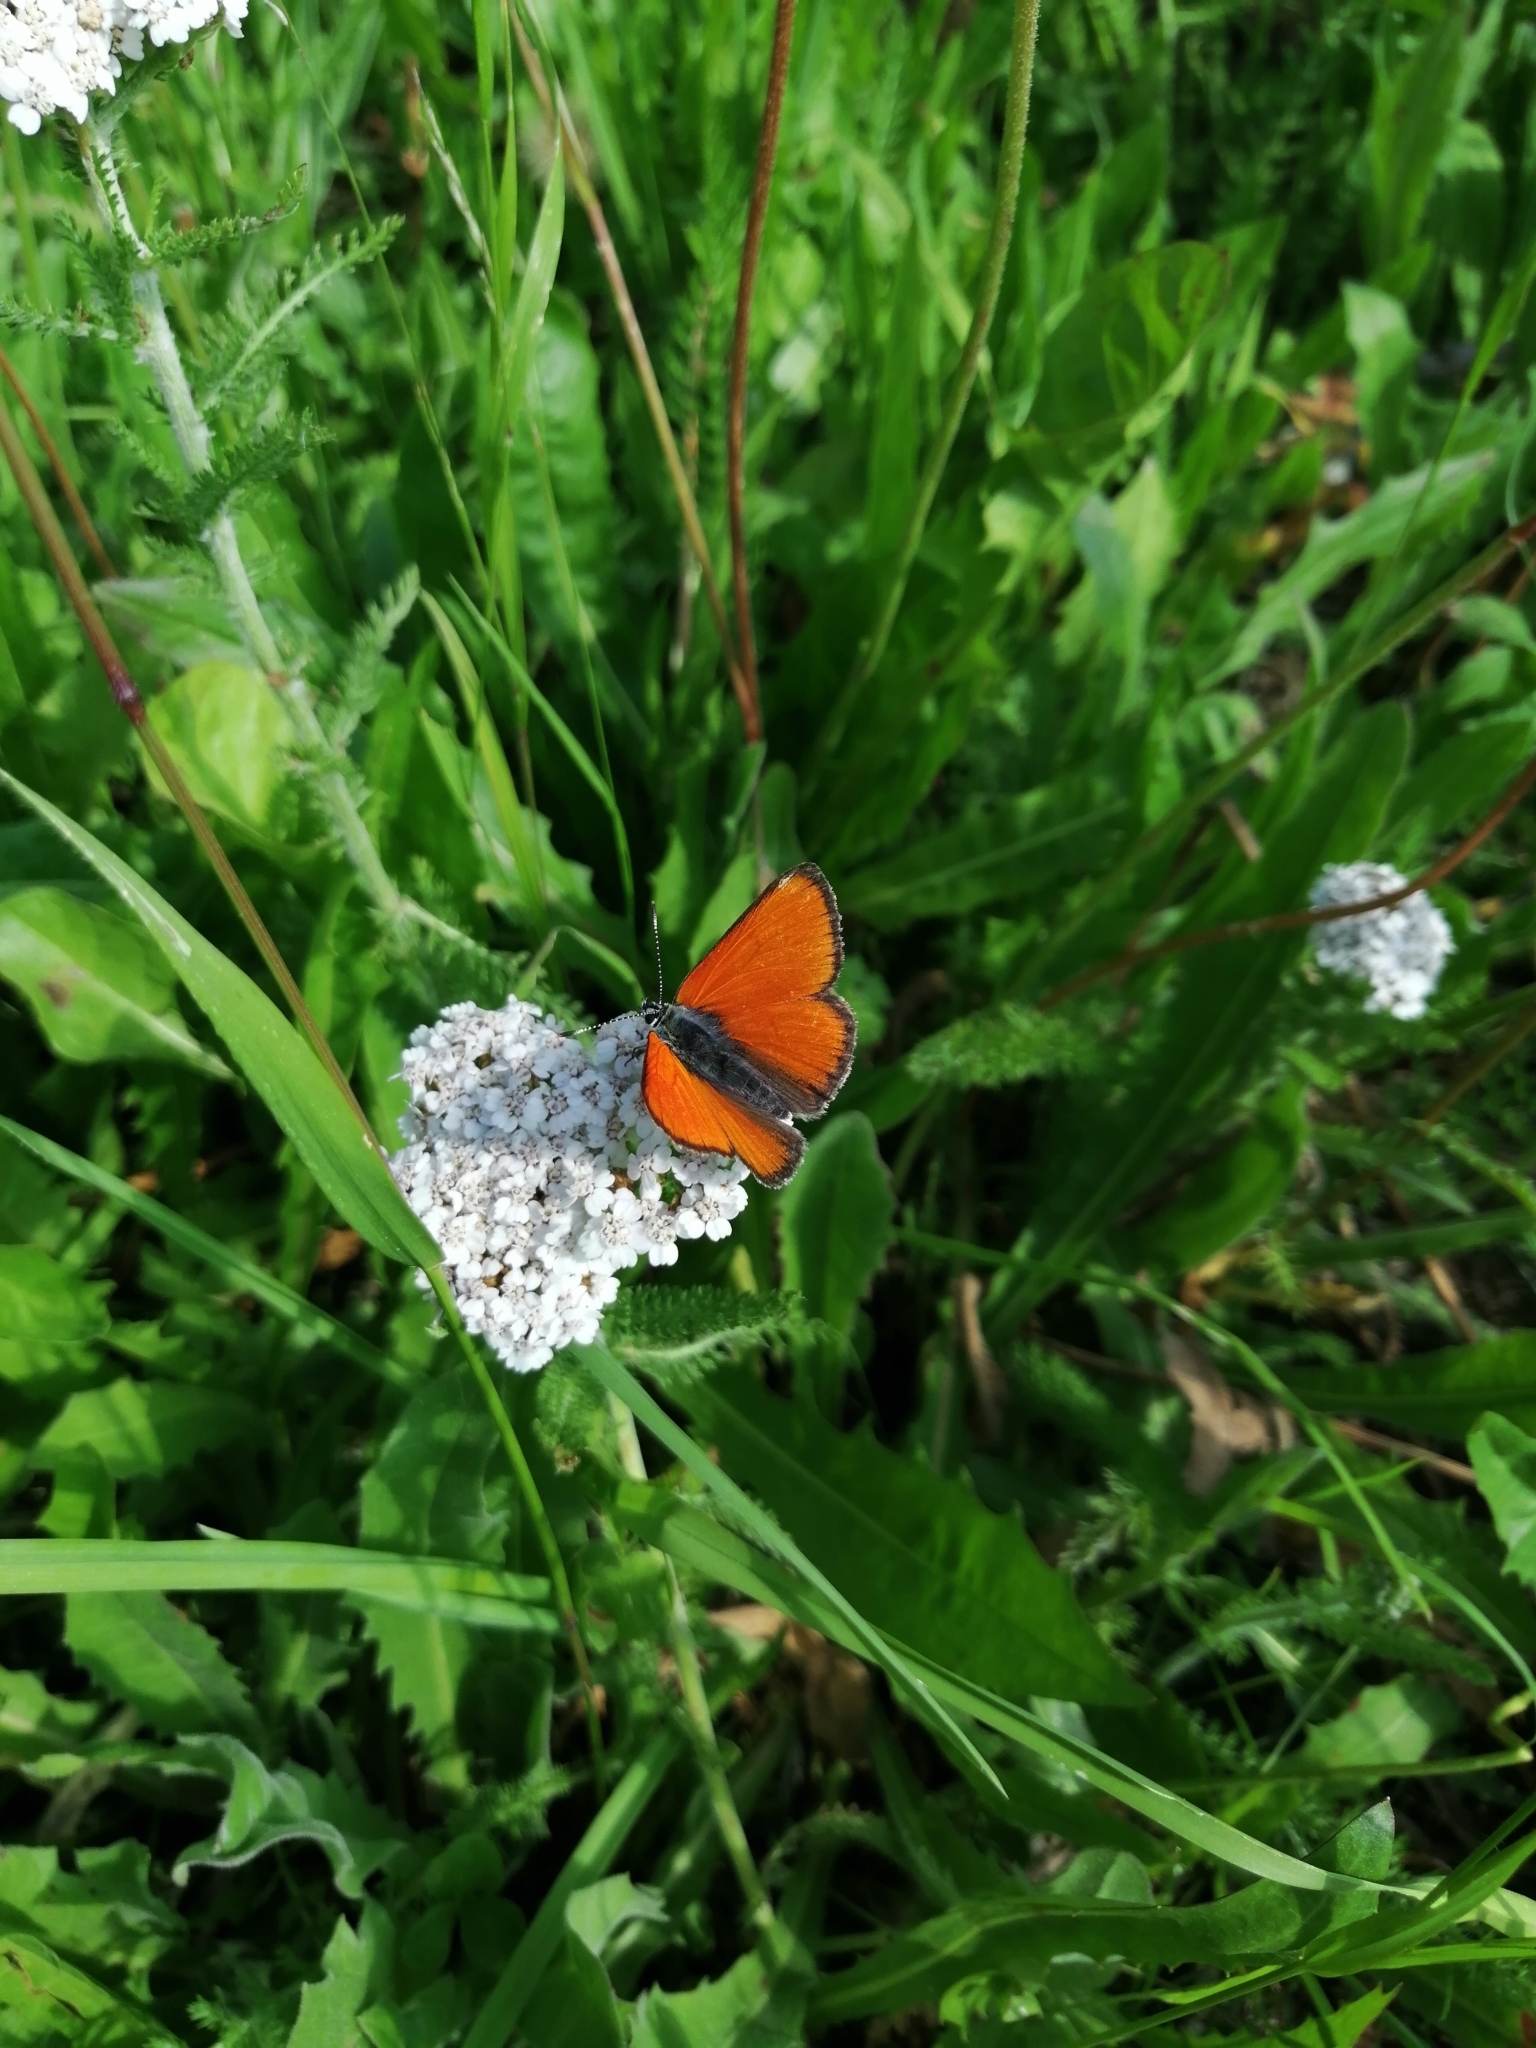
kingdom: Animalia
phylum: Arthropoda
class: Insecta
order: Lepidoptera
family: Lycaenidae
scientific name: Lycaenidae
